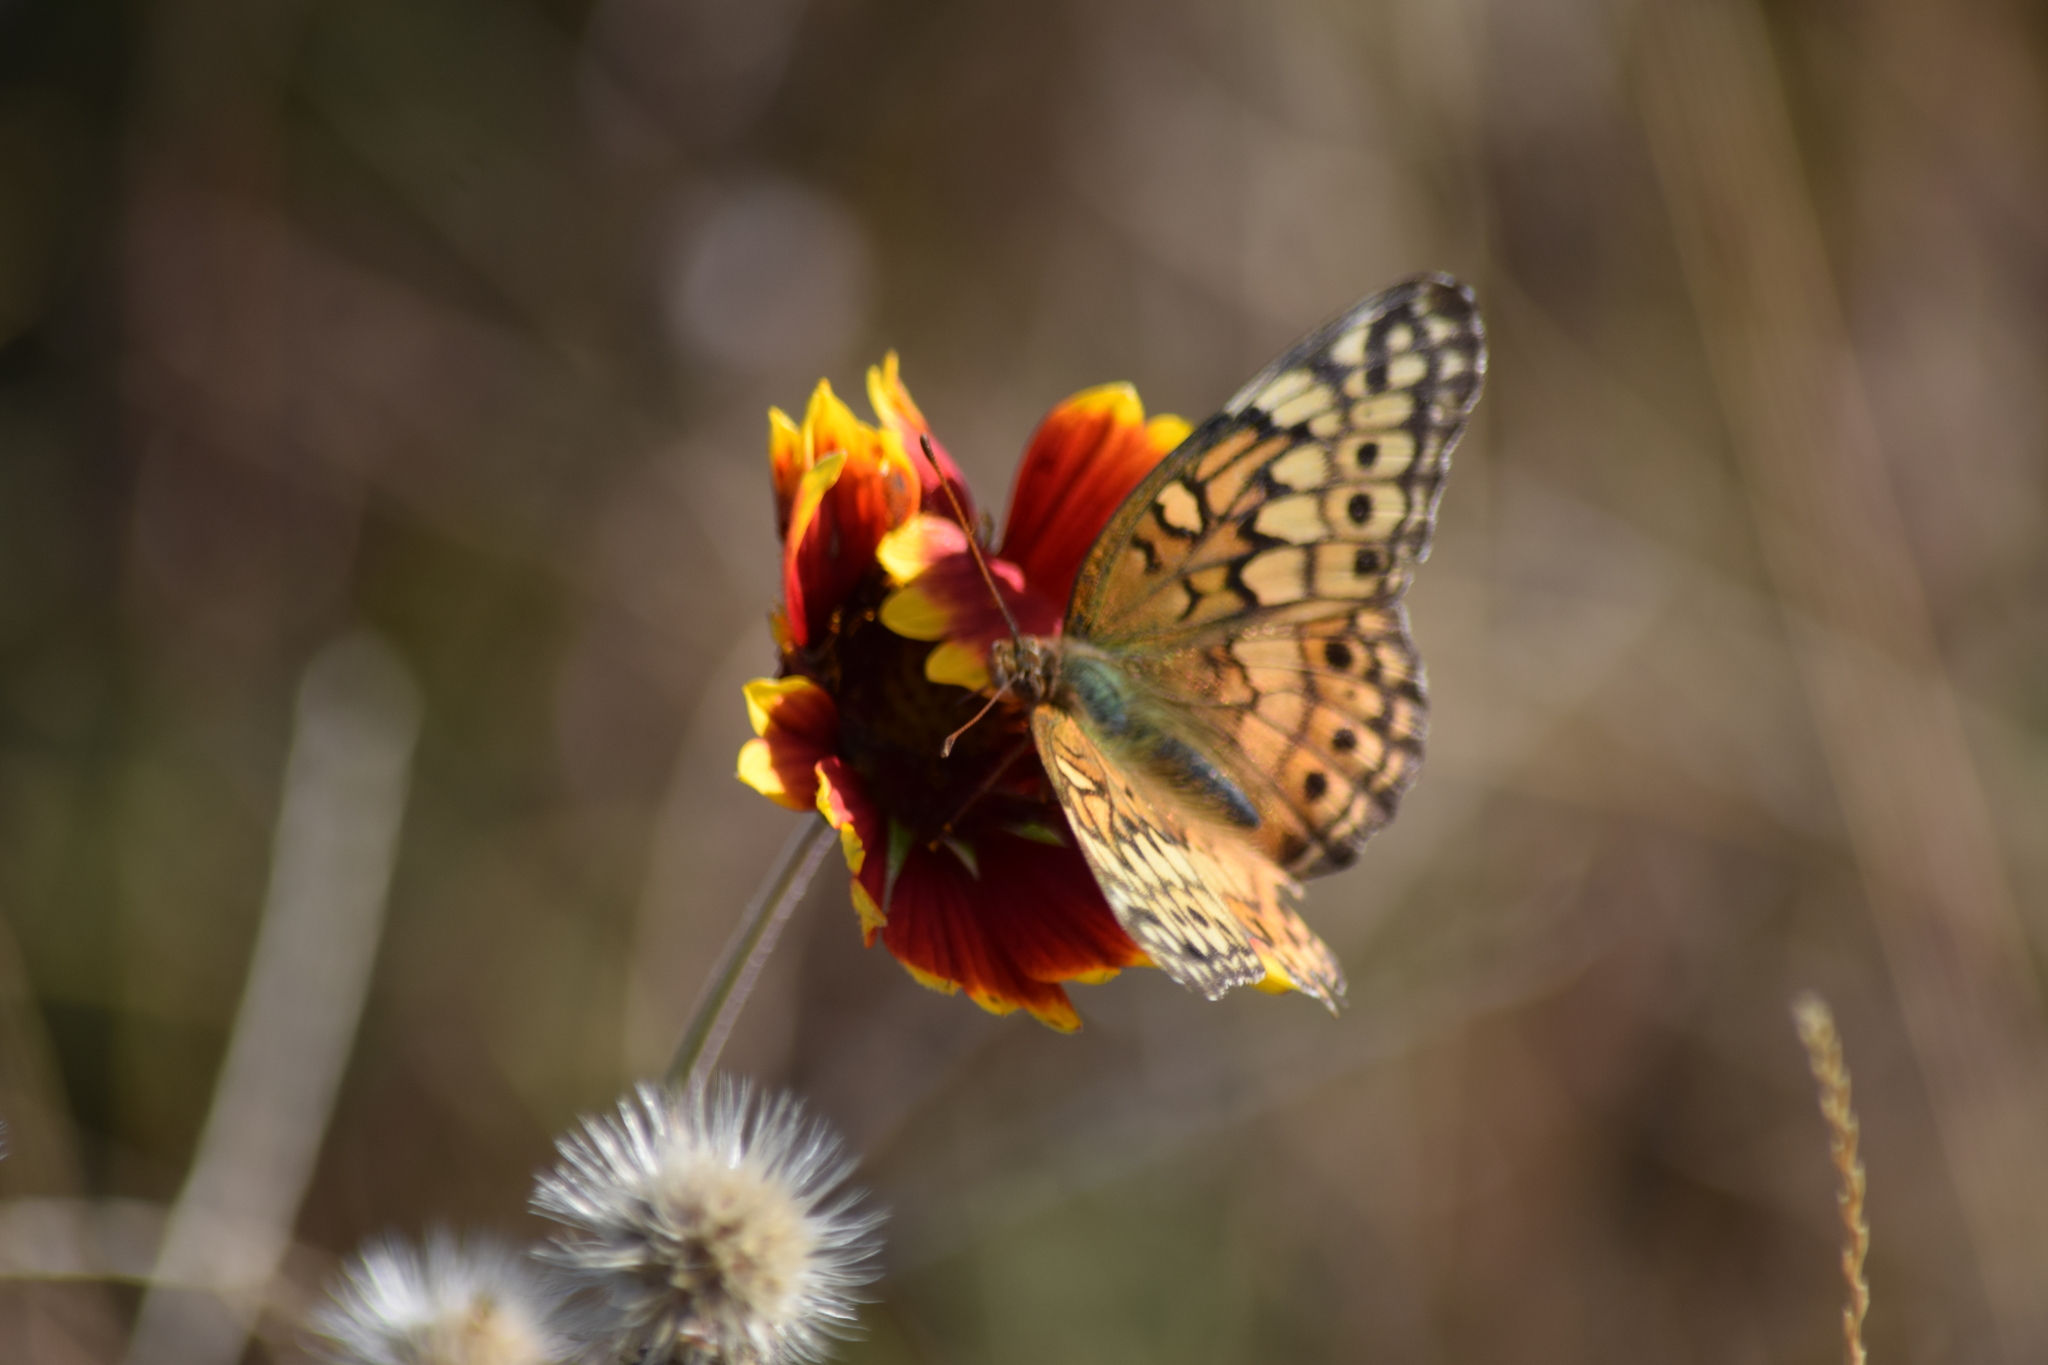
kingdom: Animalia
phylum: Arthropoda
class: Insecta
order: Lepidoptera
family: Nymphalidae
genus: Euptoieta
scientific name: Euptoieta claudia
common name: Variegated fritillary
